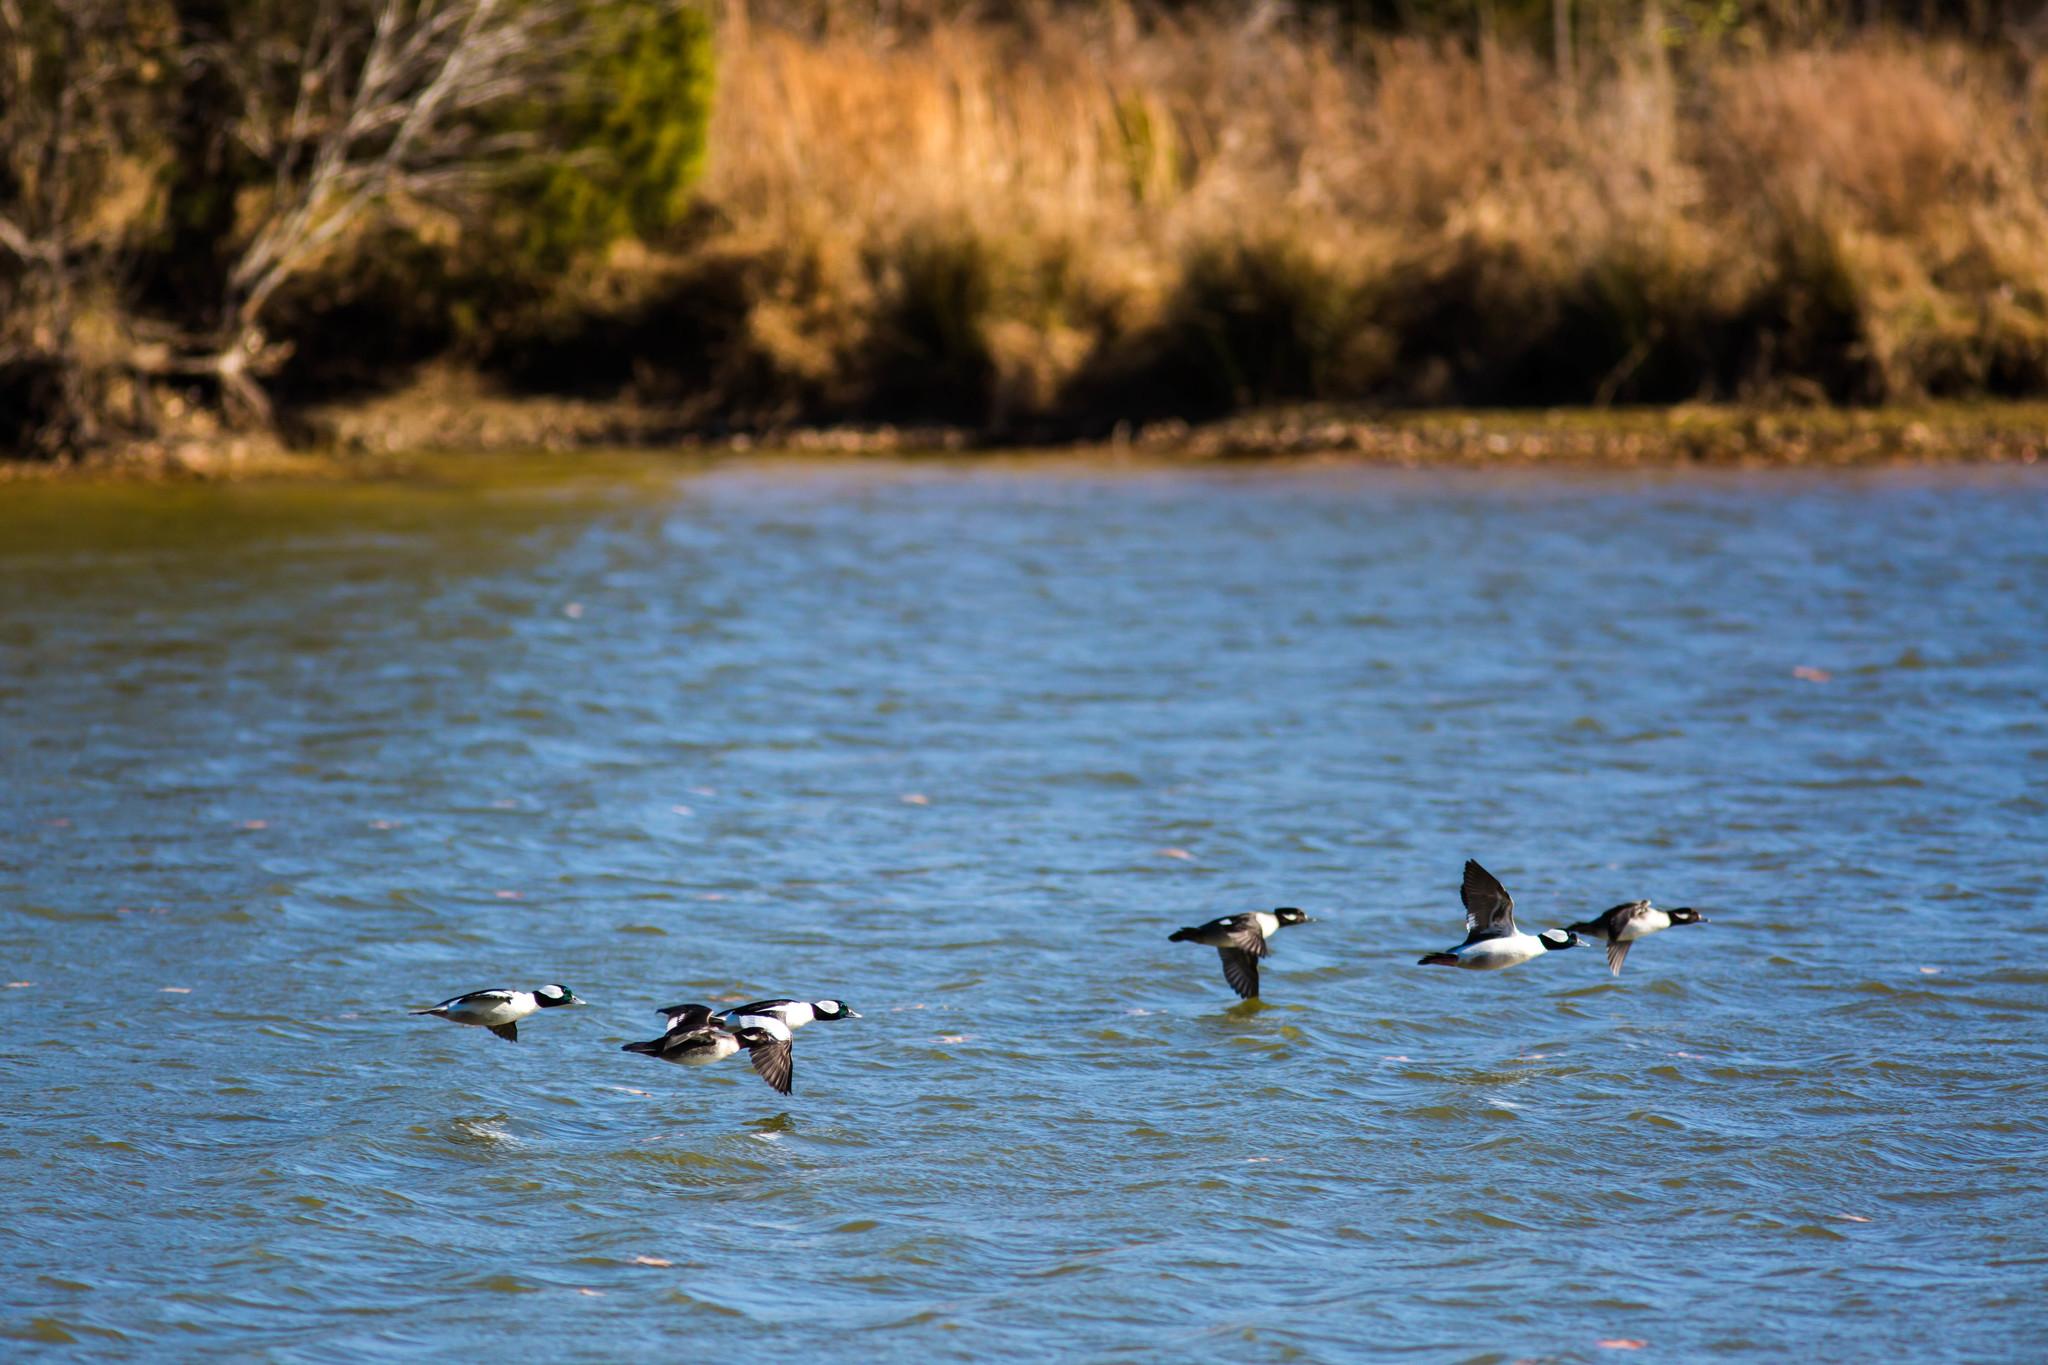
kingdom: Animalia
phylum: Chordata
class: Aves
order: Anseriformes
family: Anatidae
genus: Bucephala
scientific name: Bucephala albeola
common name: Bufflehead
